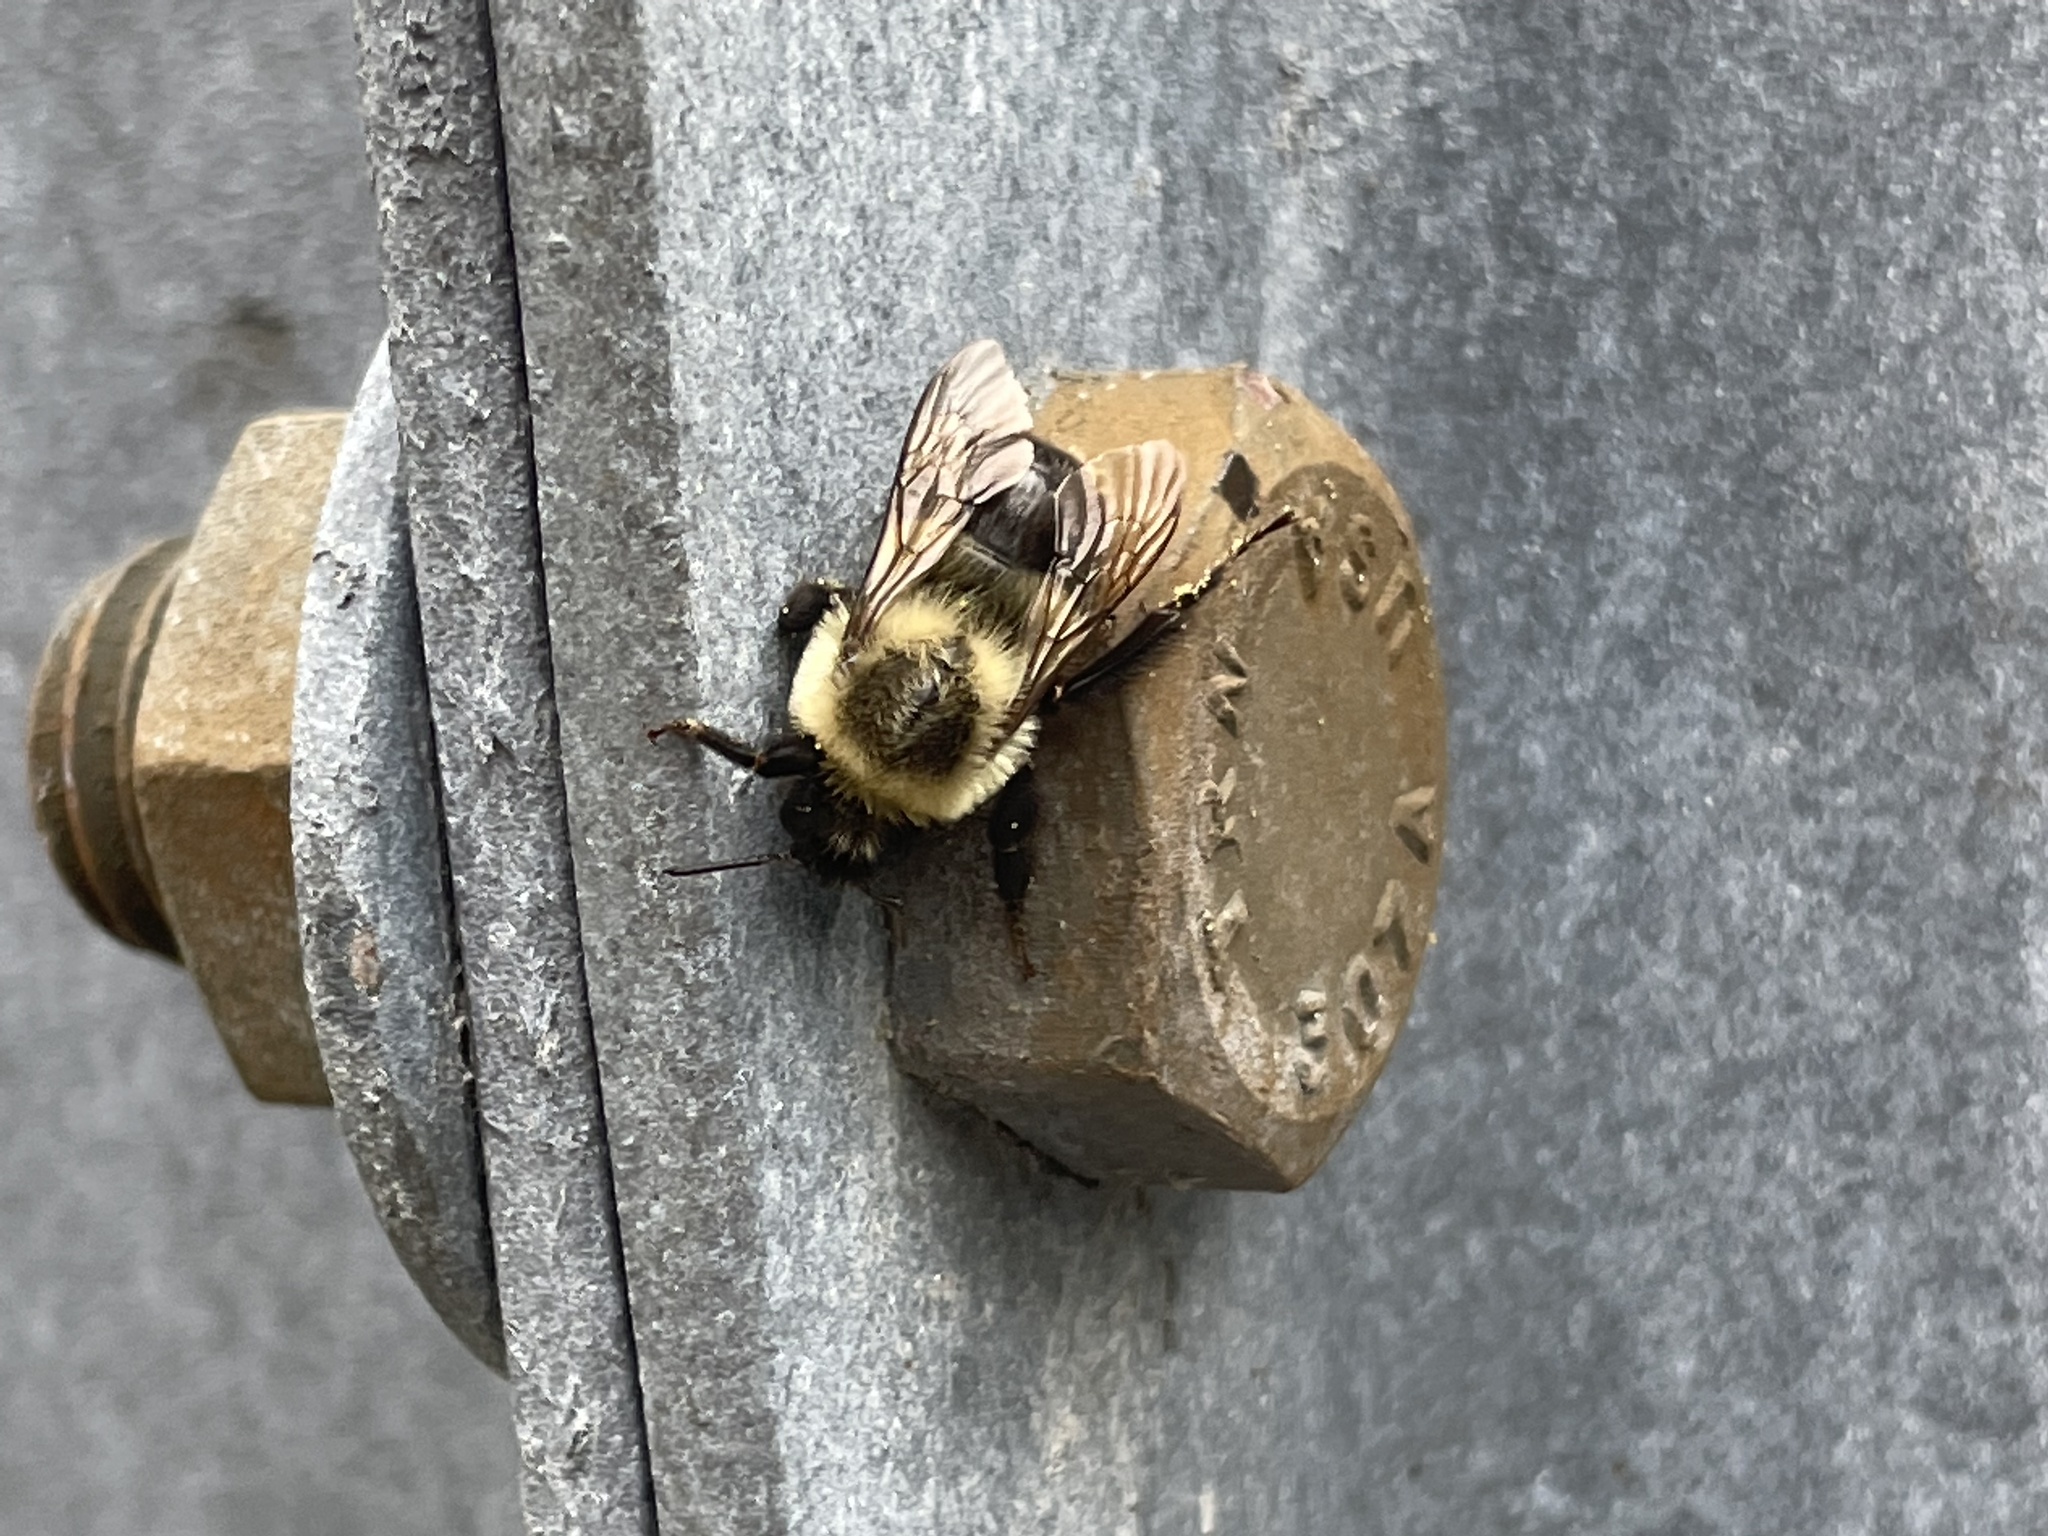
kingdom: Animalia
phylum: Arthropoda
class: Insecta
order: Hymenoptera
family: Apidae
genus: Bombus
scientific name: Bombus impatiens
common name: Common eastern bumble bee
